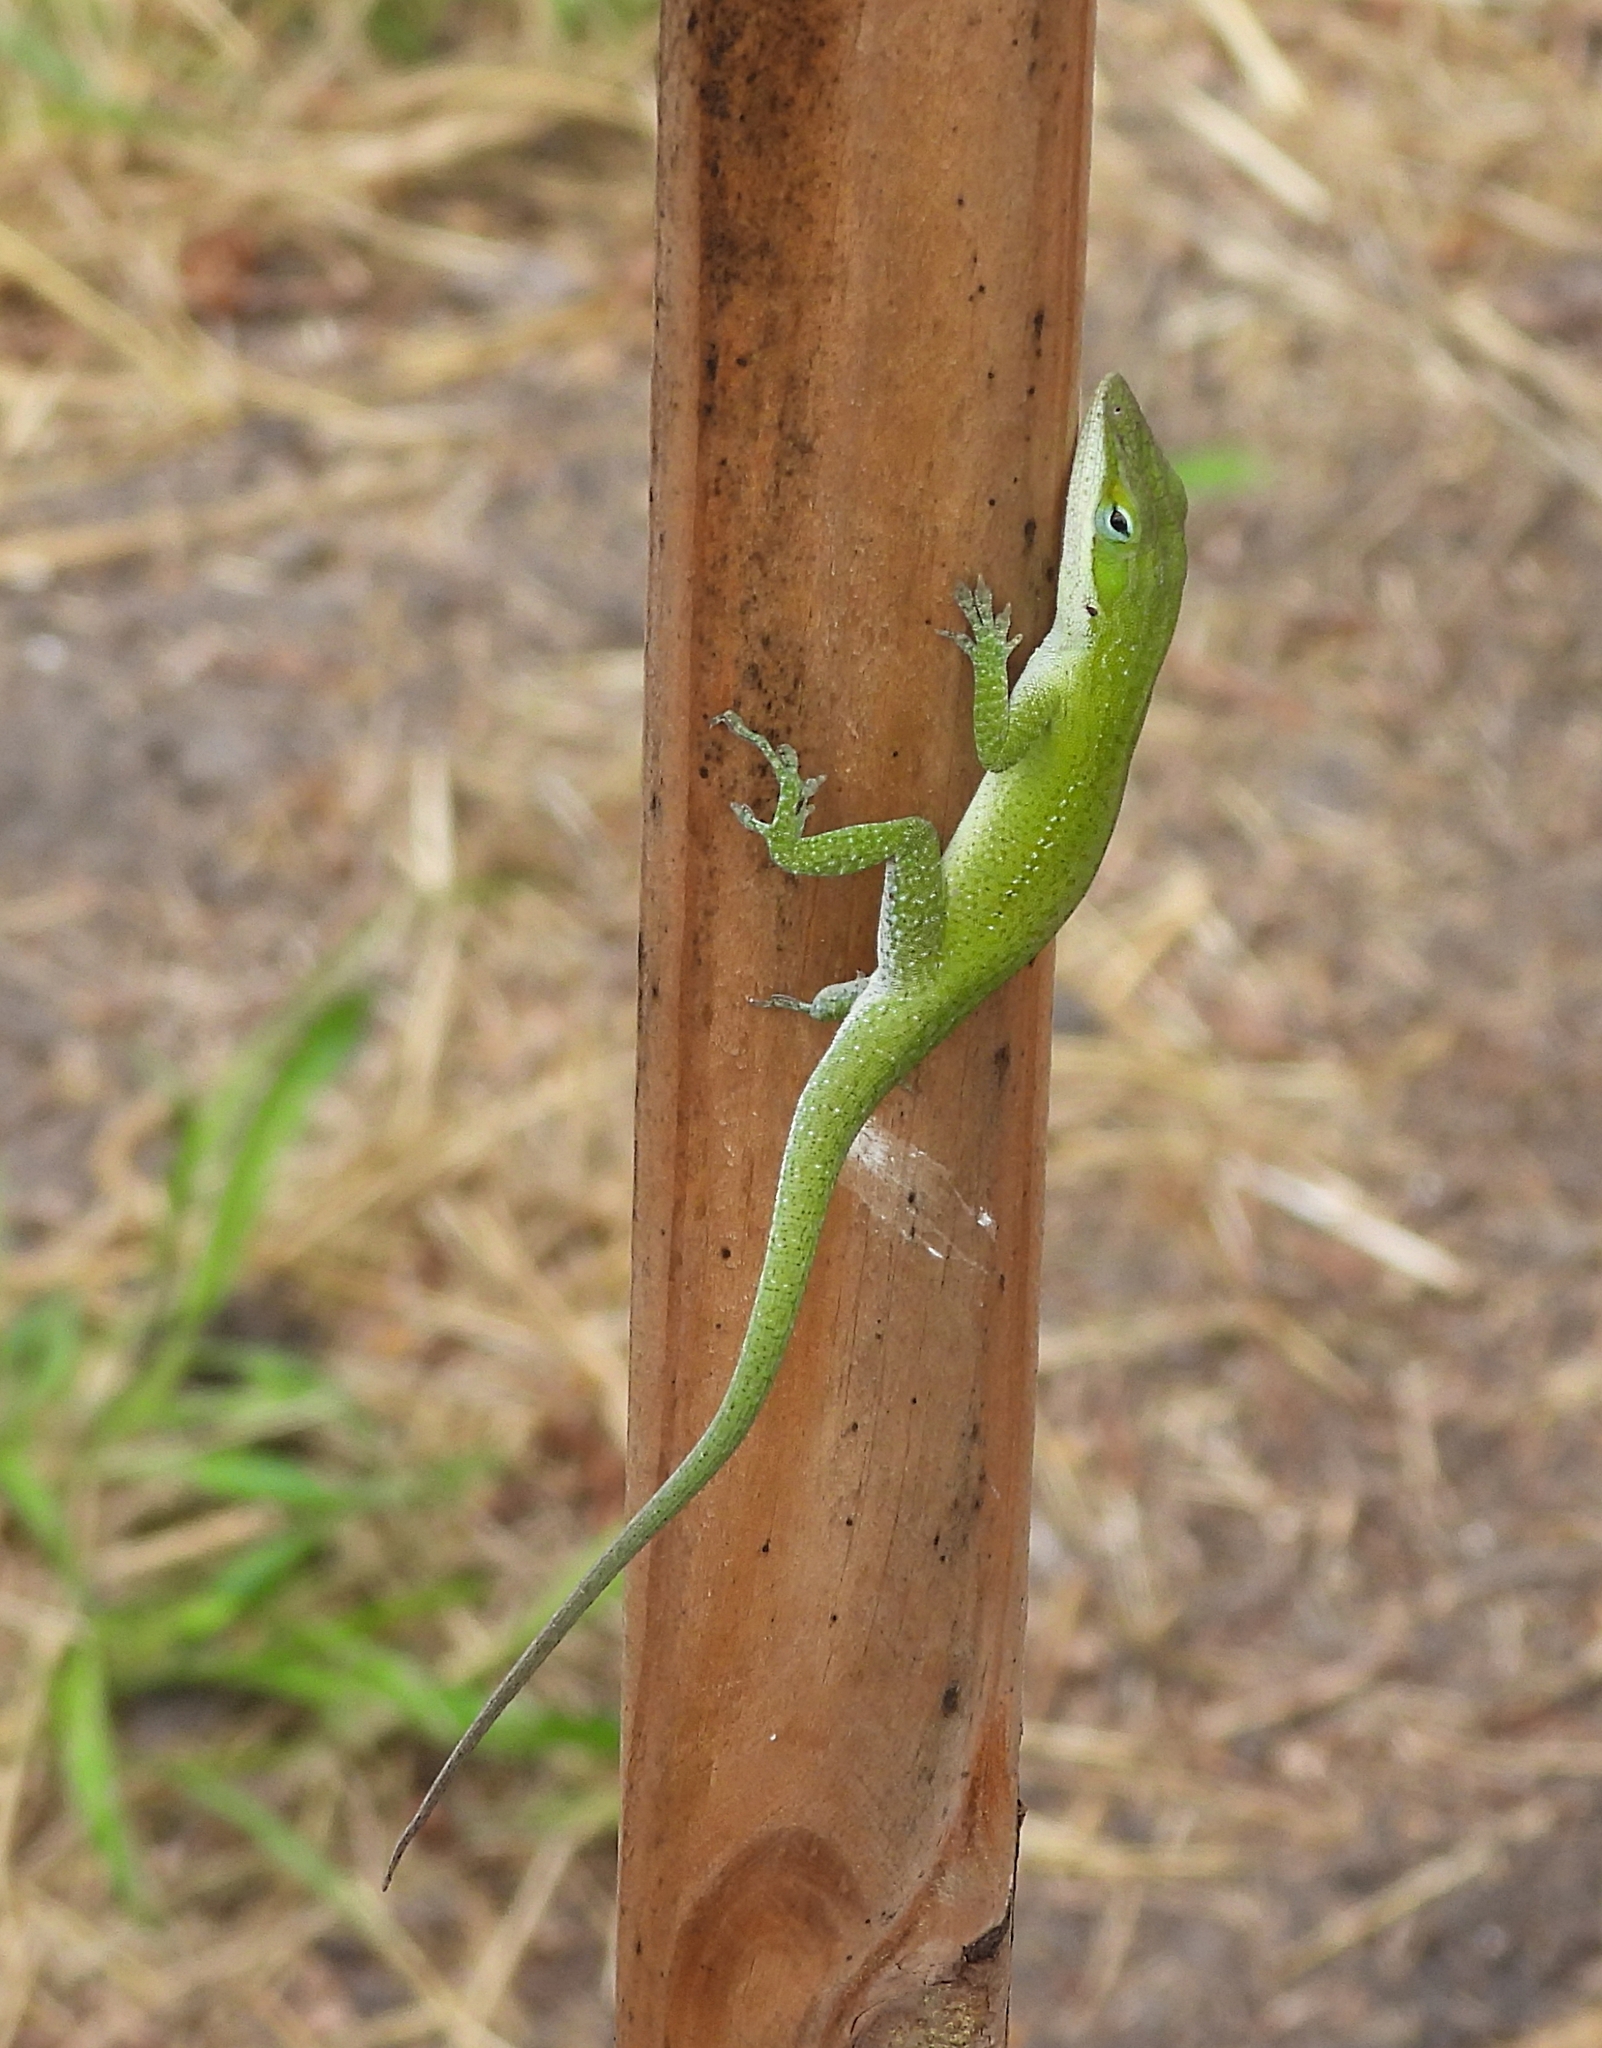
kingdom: Animalia
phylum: Chordata
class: Squamata
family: Dactyloidae
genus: Anolis
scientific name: Anolis carolinensis
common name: Green anole
